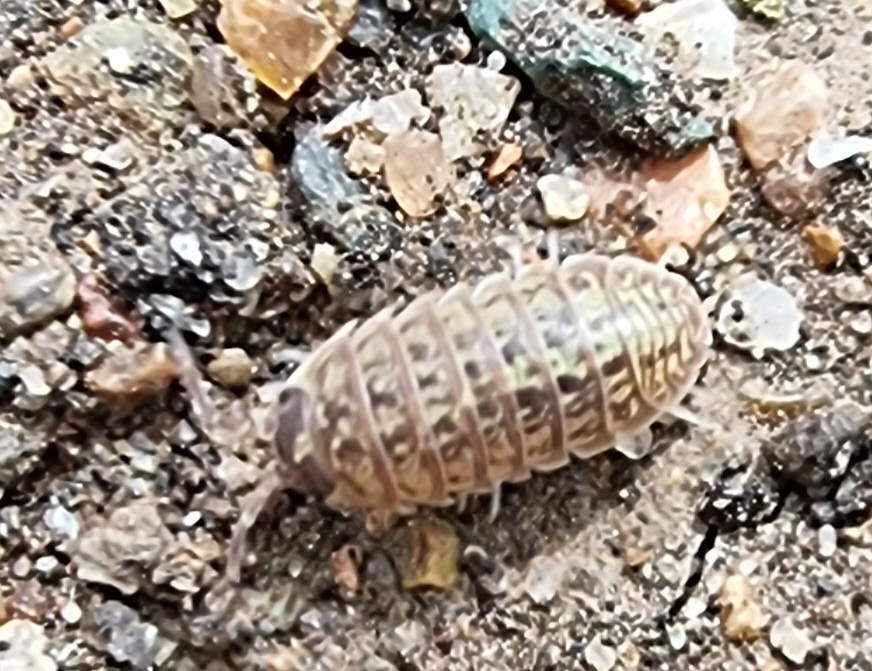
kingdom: Animalia
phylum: Arthropoda
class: Malacostraca
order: Isopoda
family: Armadillidiidae
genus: Armadillidium
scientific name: Armadillidium versicolor
